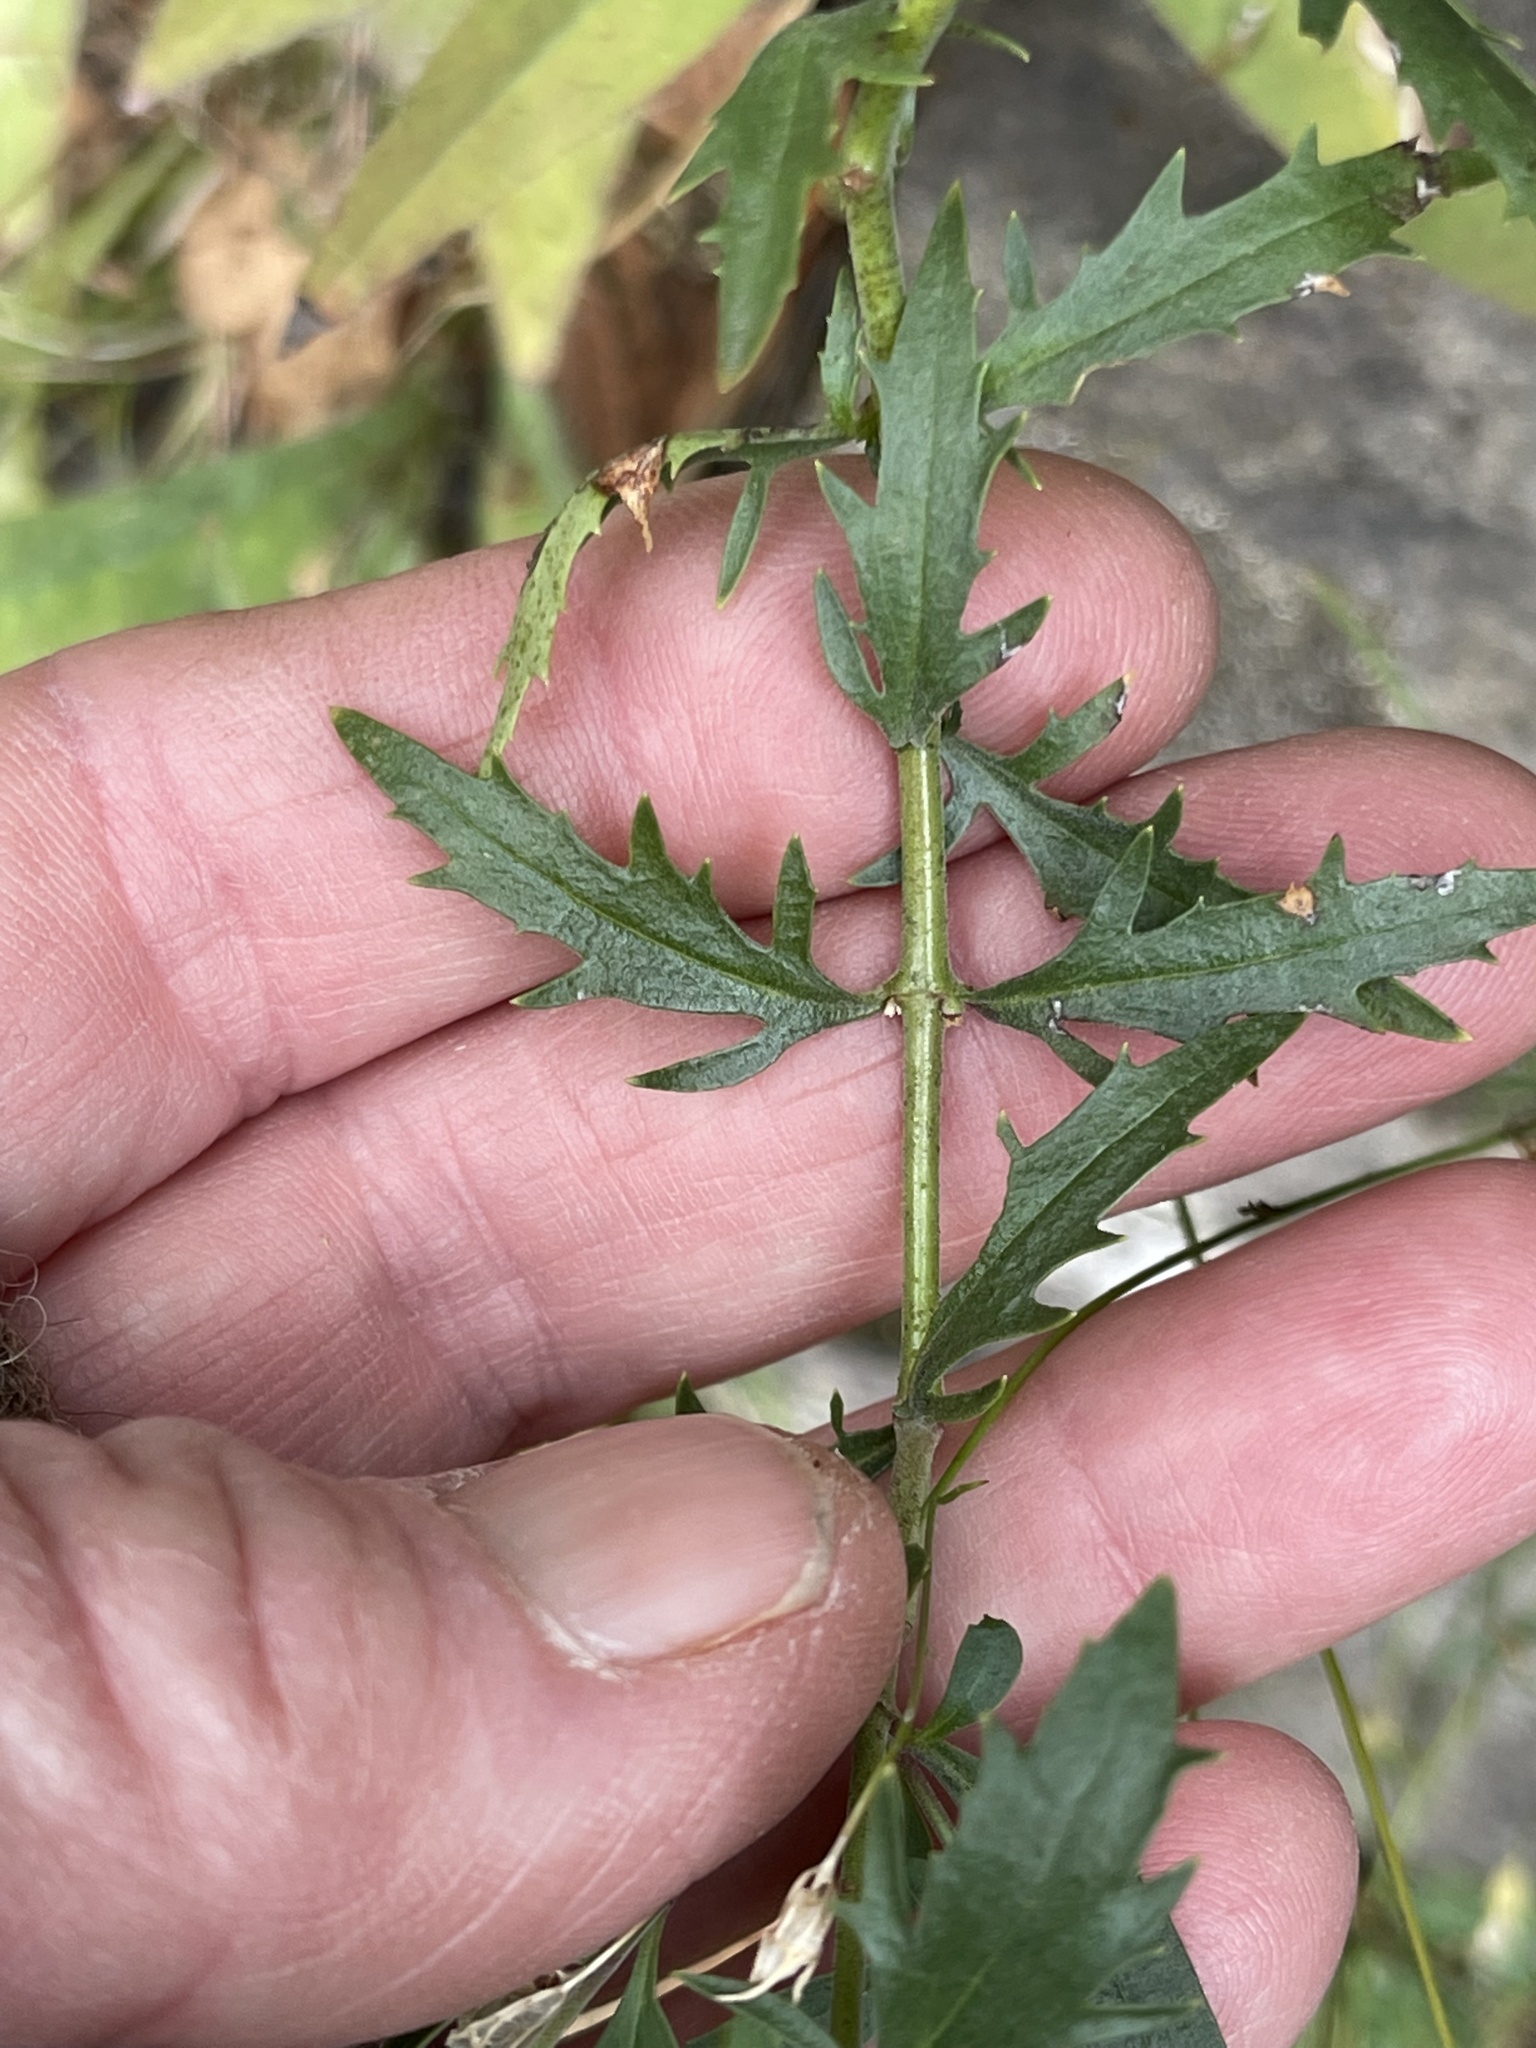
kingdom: Plantae
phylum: Tracheophyta
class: Magnoliopsida
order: Lamiales
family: Plantaginaceae
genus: Penstemon
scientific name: Penstemon richardsonii
